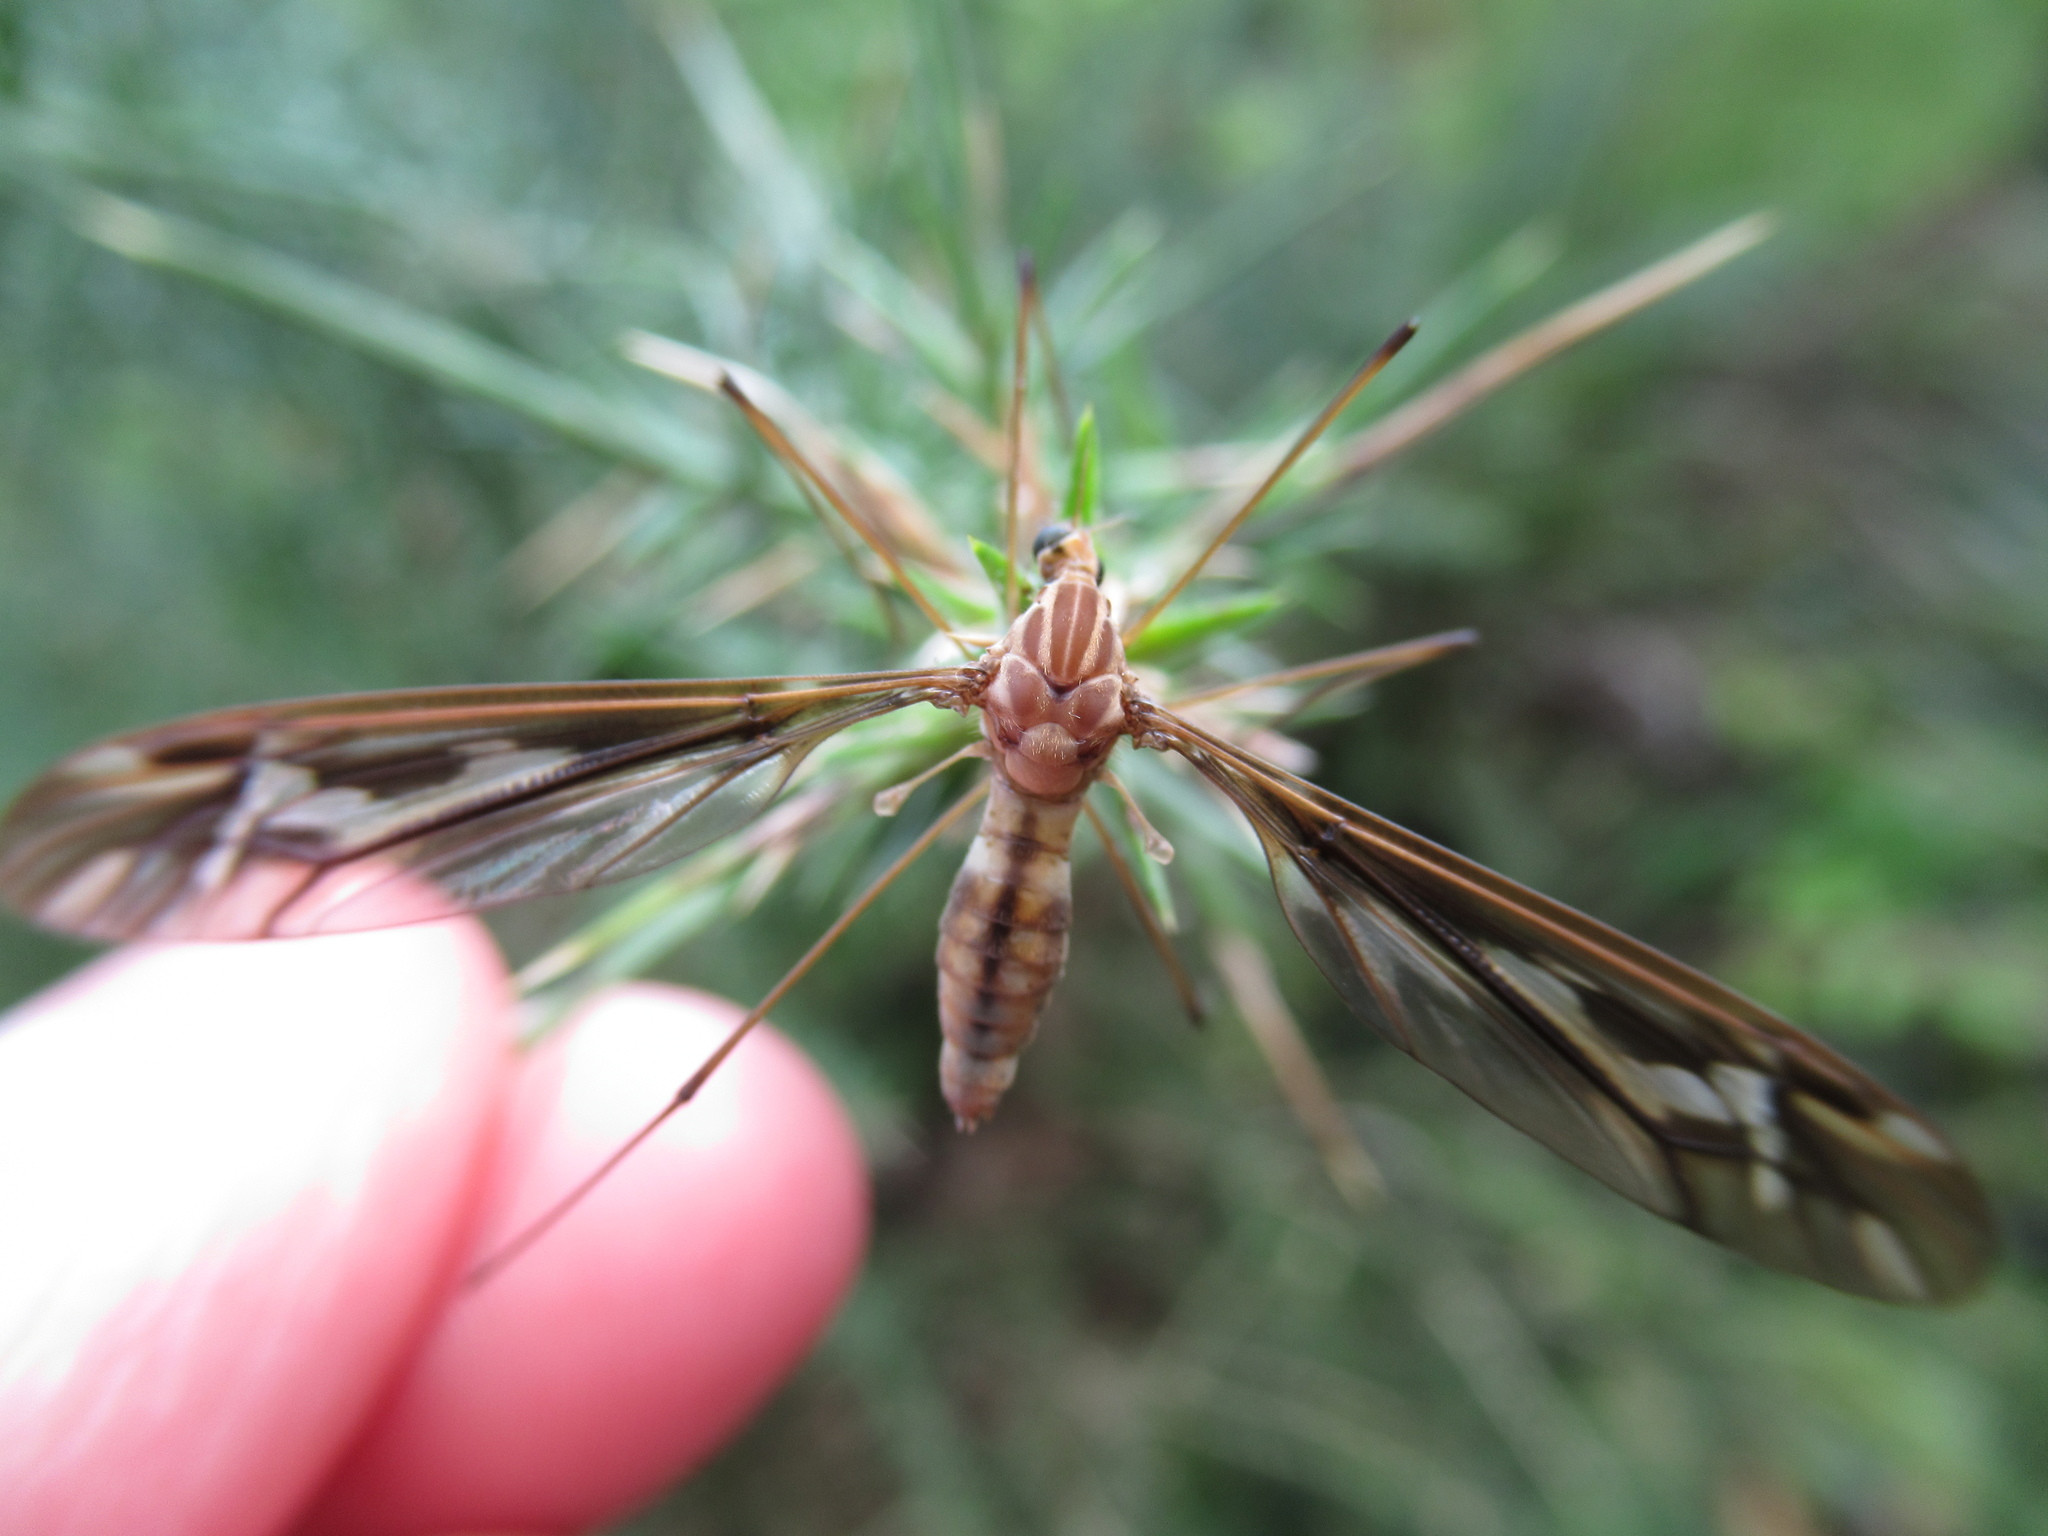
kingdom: Animalia
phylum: Arthropoda
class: Insecta
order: Diptera
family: Tipulidae
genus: Leptotarsus
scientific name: Leptotarsus huttoni
